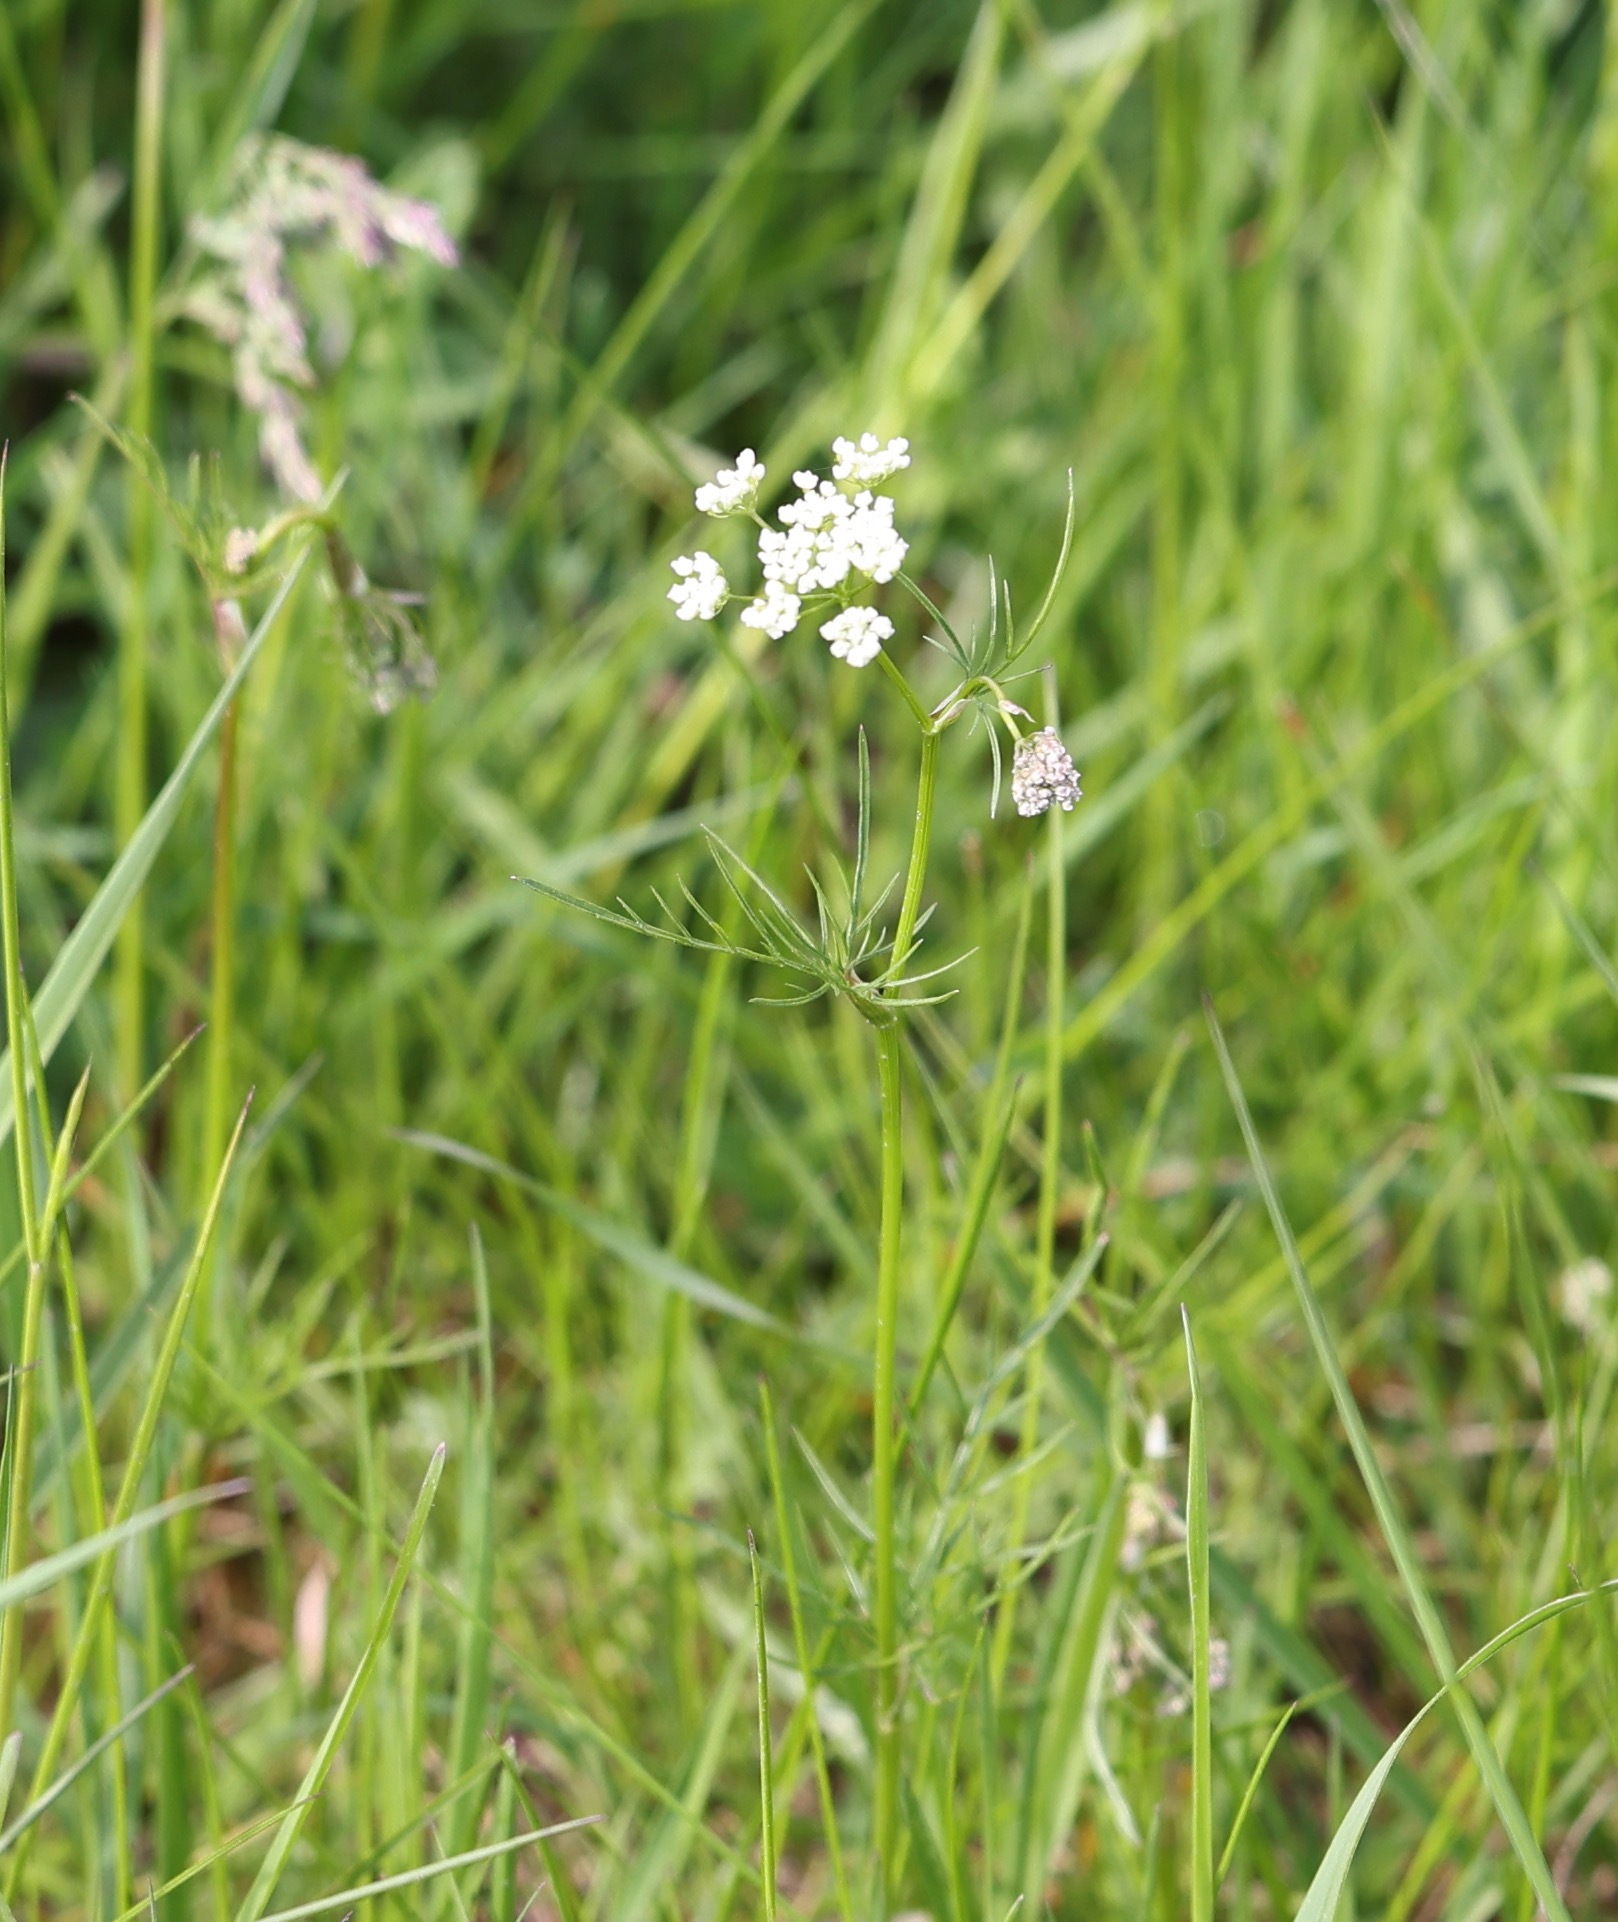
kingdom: Plantae
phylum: Tracheophyta
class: Magnoliopsida
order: Apiales
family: Apiaceae
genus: Conopodium
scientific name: Conopodium majus
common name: Pignut
